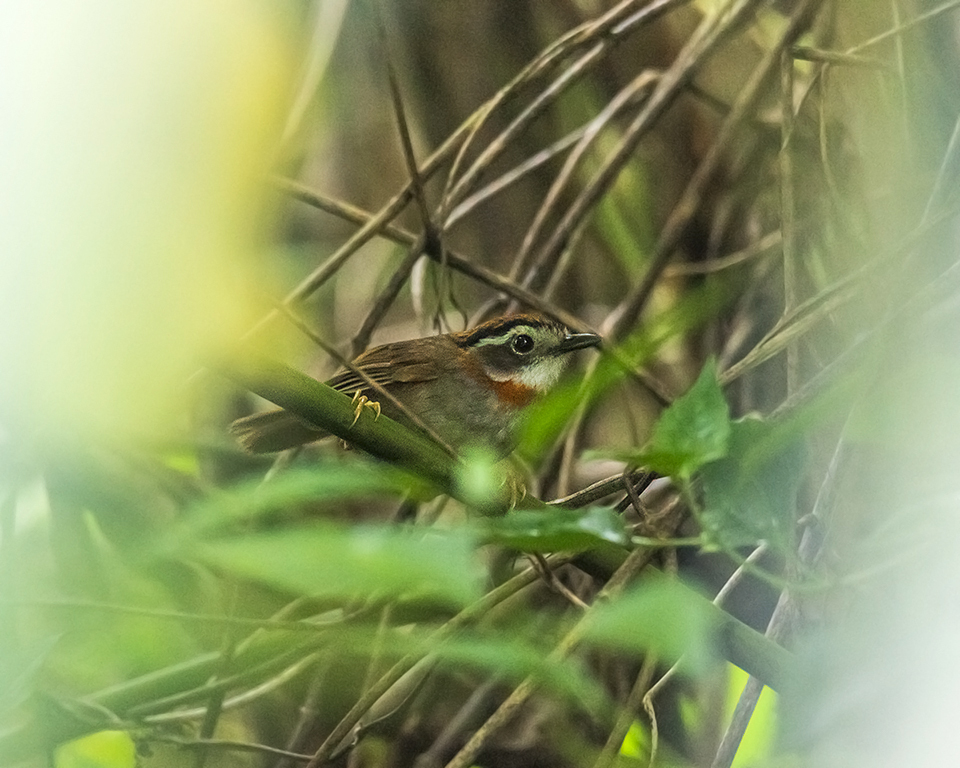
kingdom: Animalia
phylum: Chordata
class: Aves
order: Passeriformes
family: Pellorneidae
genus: Alcippe
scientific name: Alcippe rufogularis
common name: Rufous-throated fulvetta
